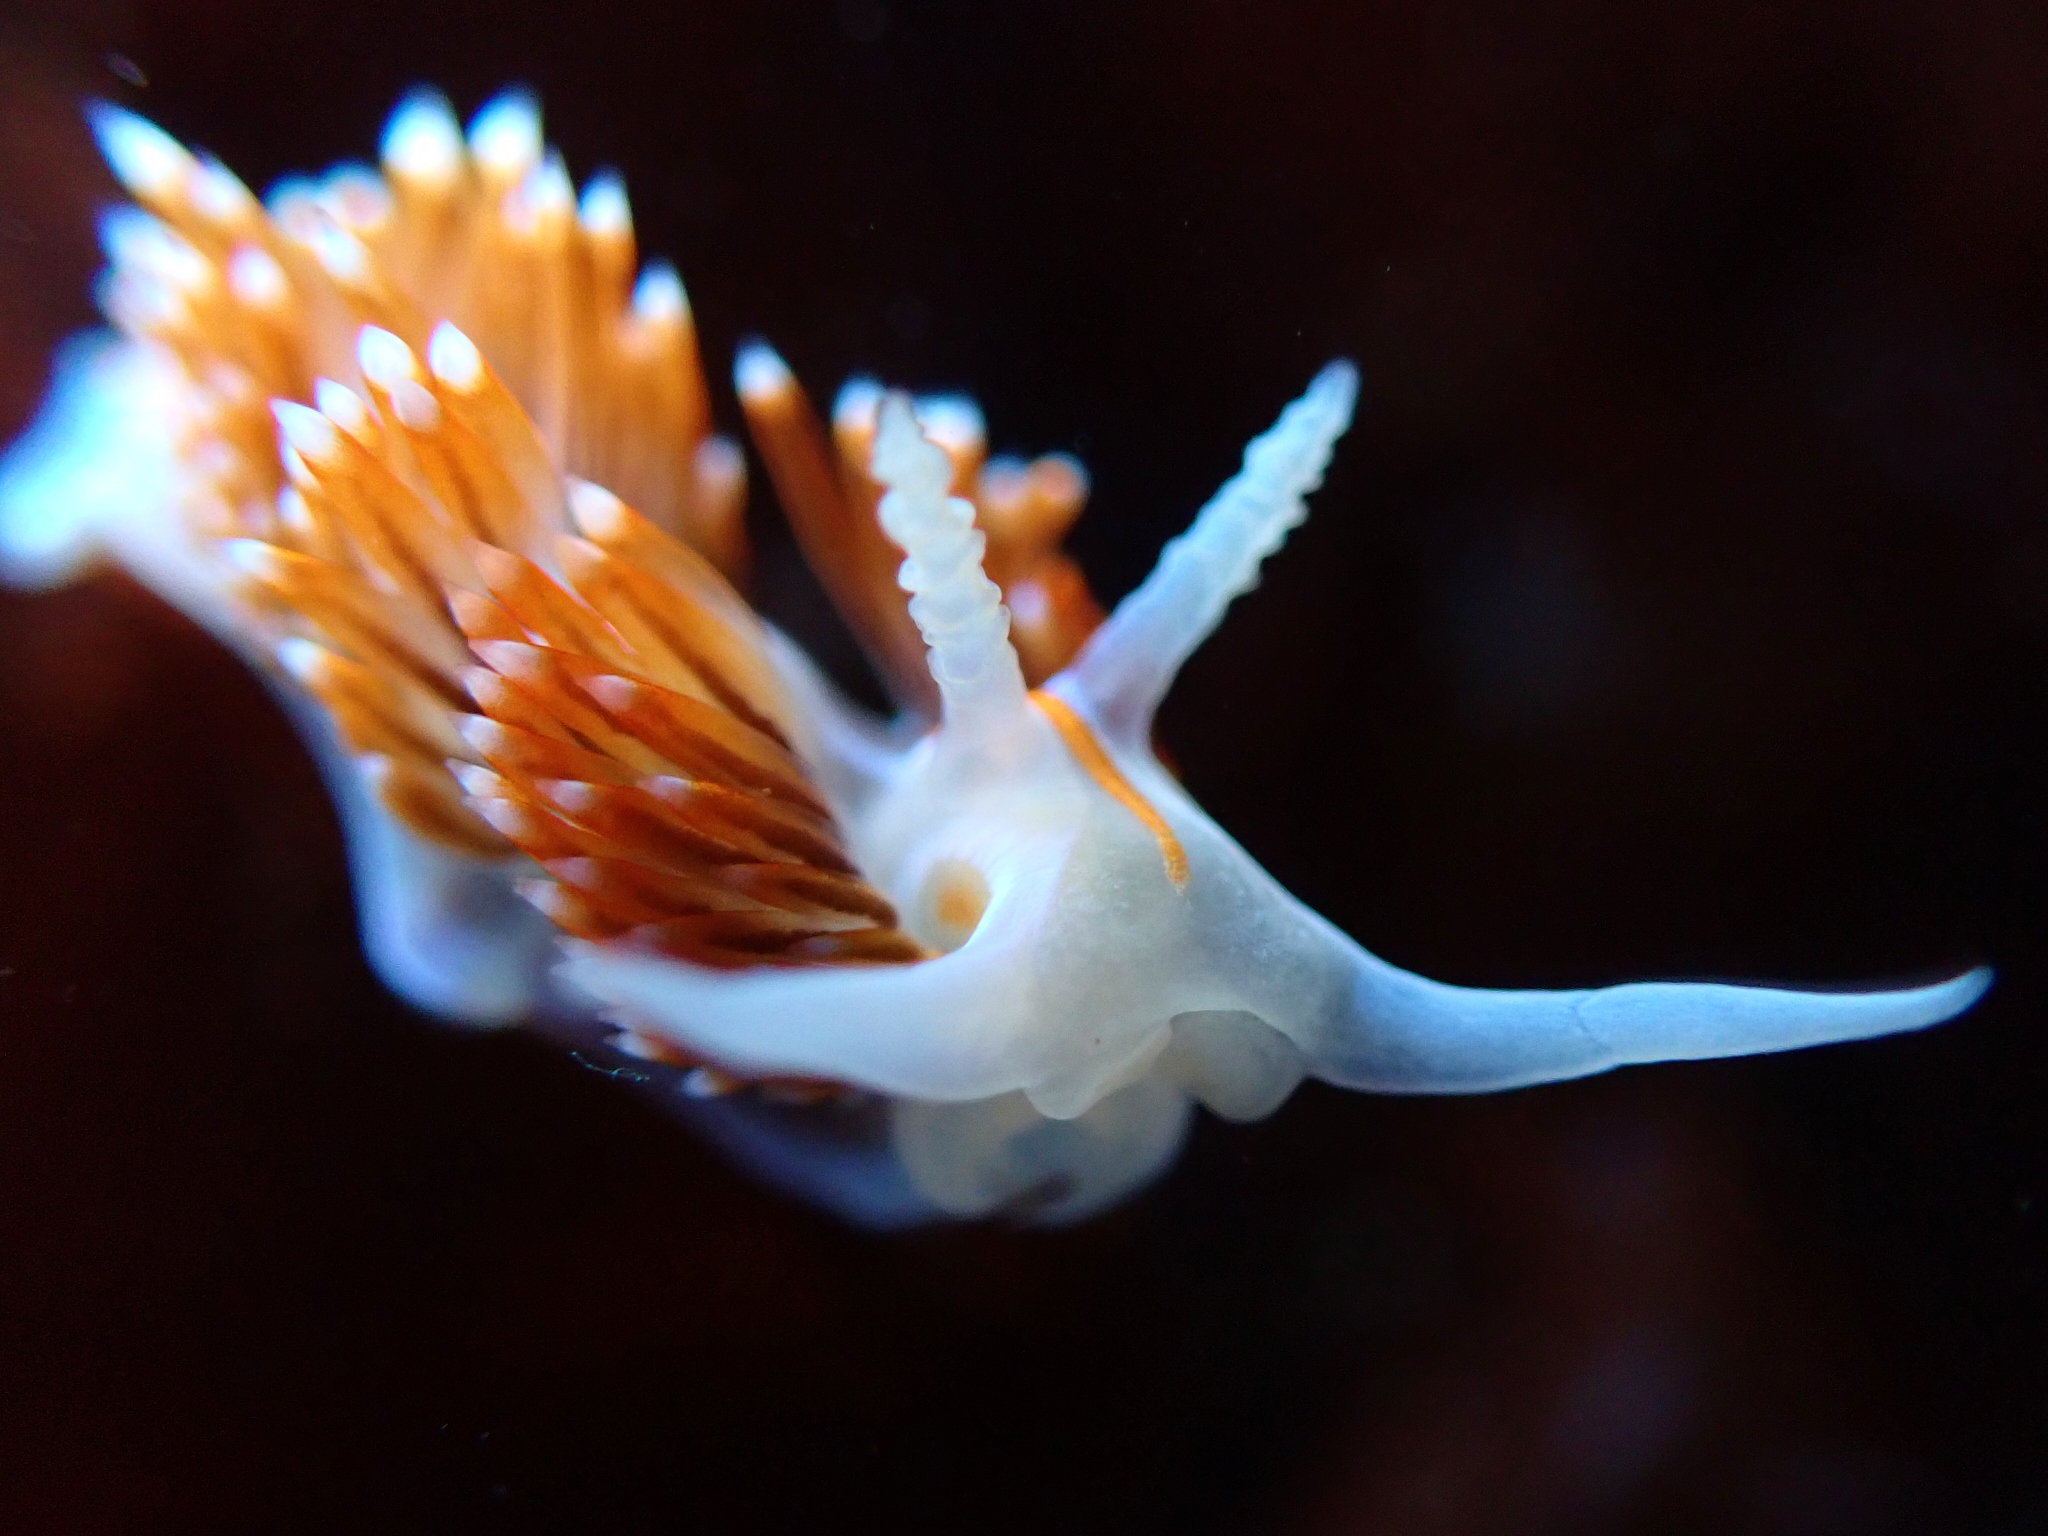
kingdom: Animalia
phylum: Mollusca
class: Gastropoda
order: Nudibranchia
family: Myrrhinidae
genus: Hermissenda
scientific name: Hermissenda opalescens
